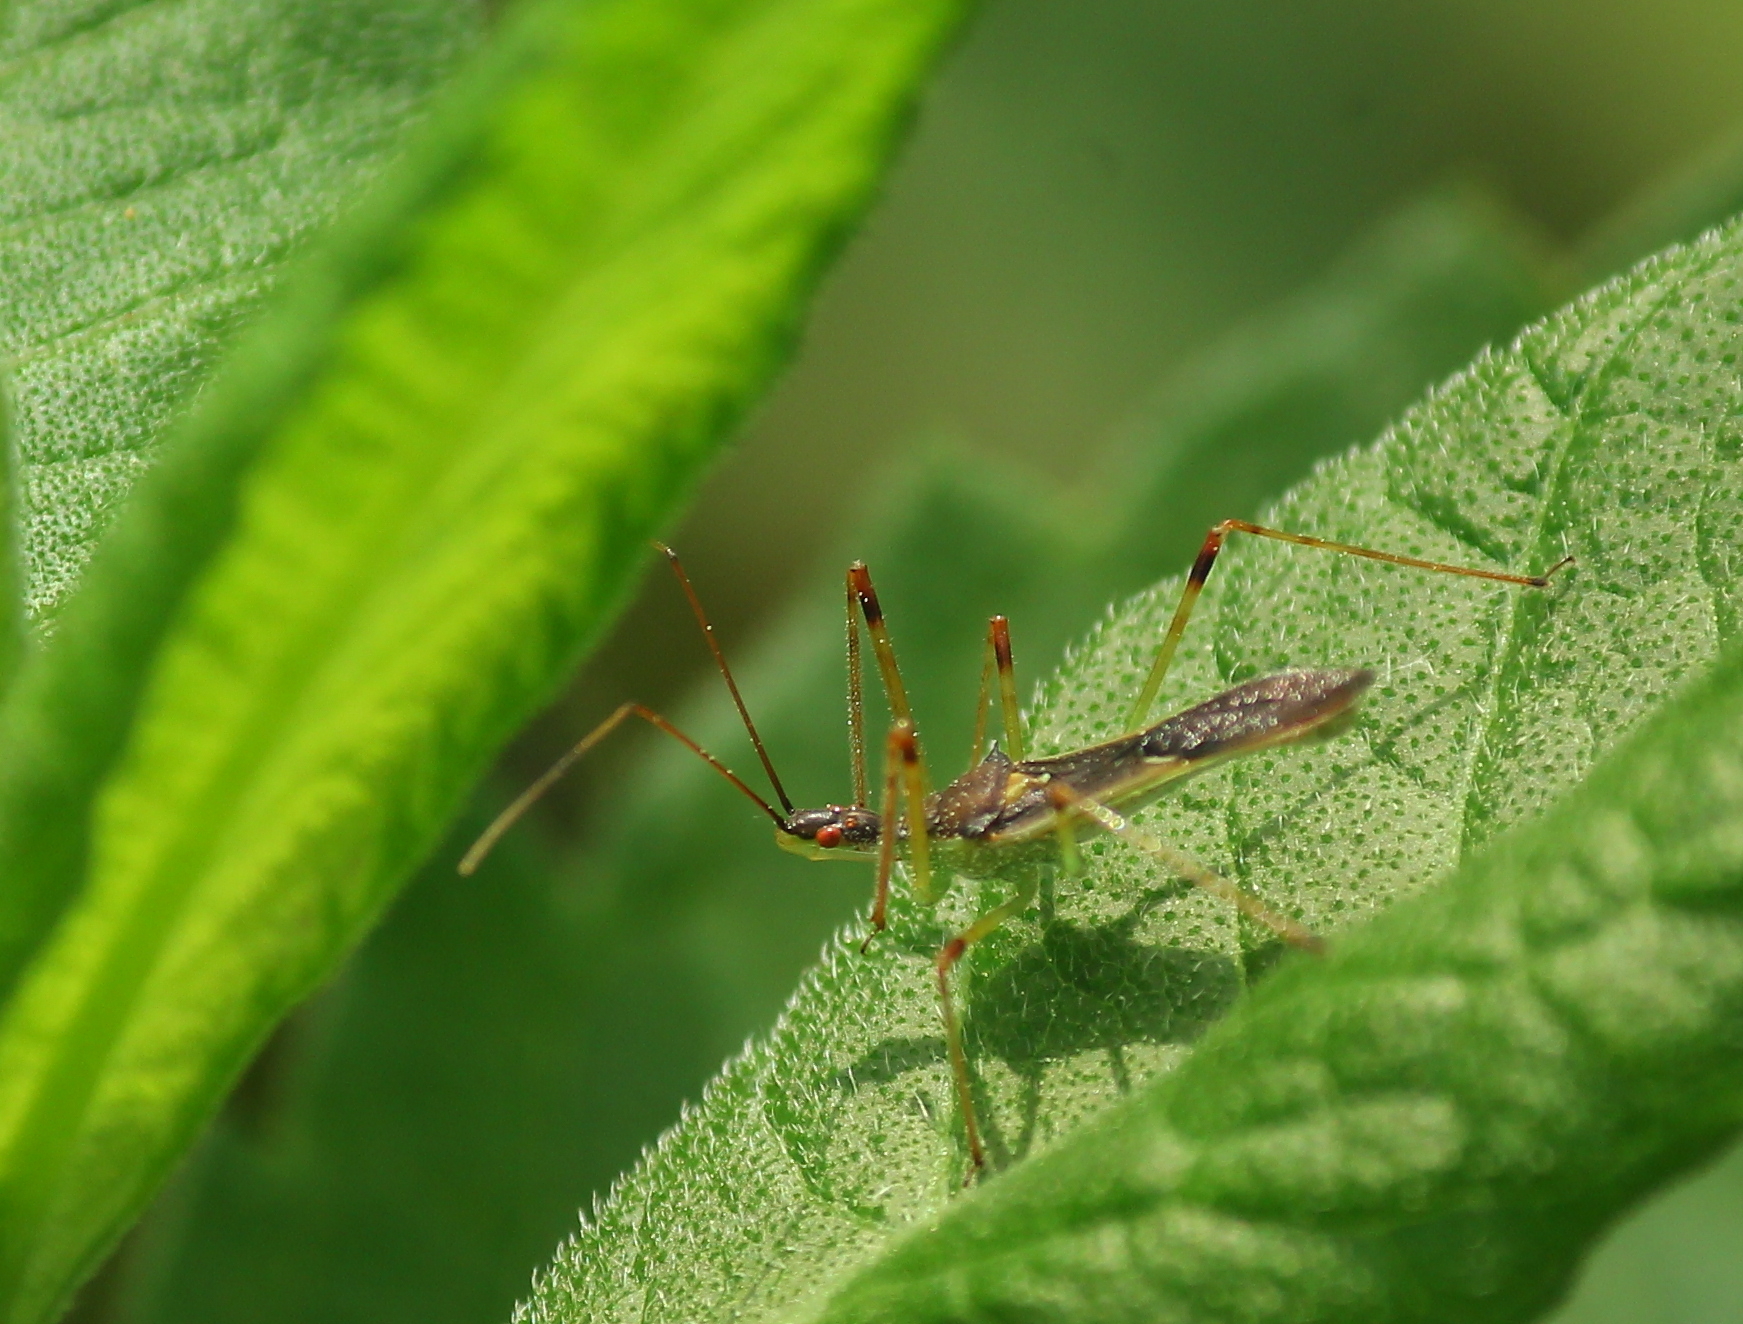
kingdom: Animalia
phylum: Arthropoda
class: Insecta
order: Hemiptera
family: Reduviidae
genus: Zelus
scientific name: Zelus luridus
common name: Pale green assassin bug
